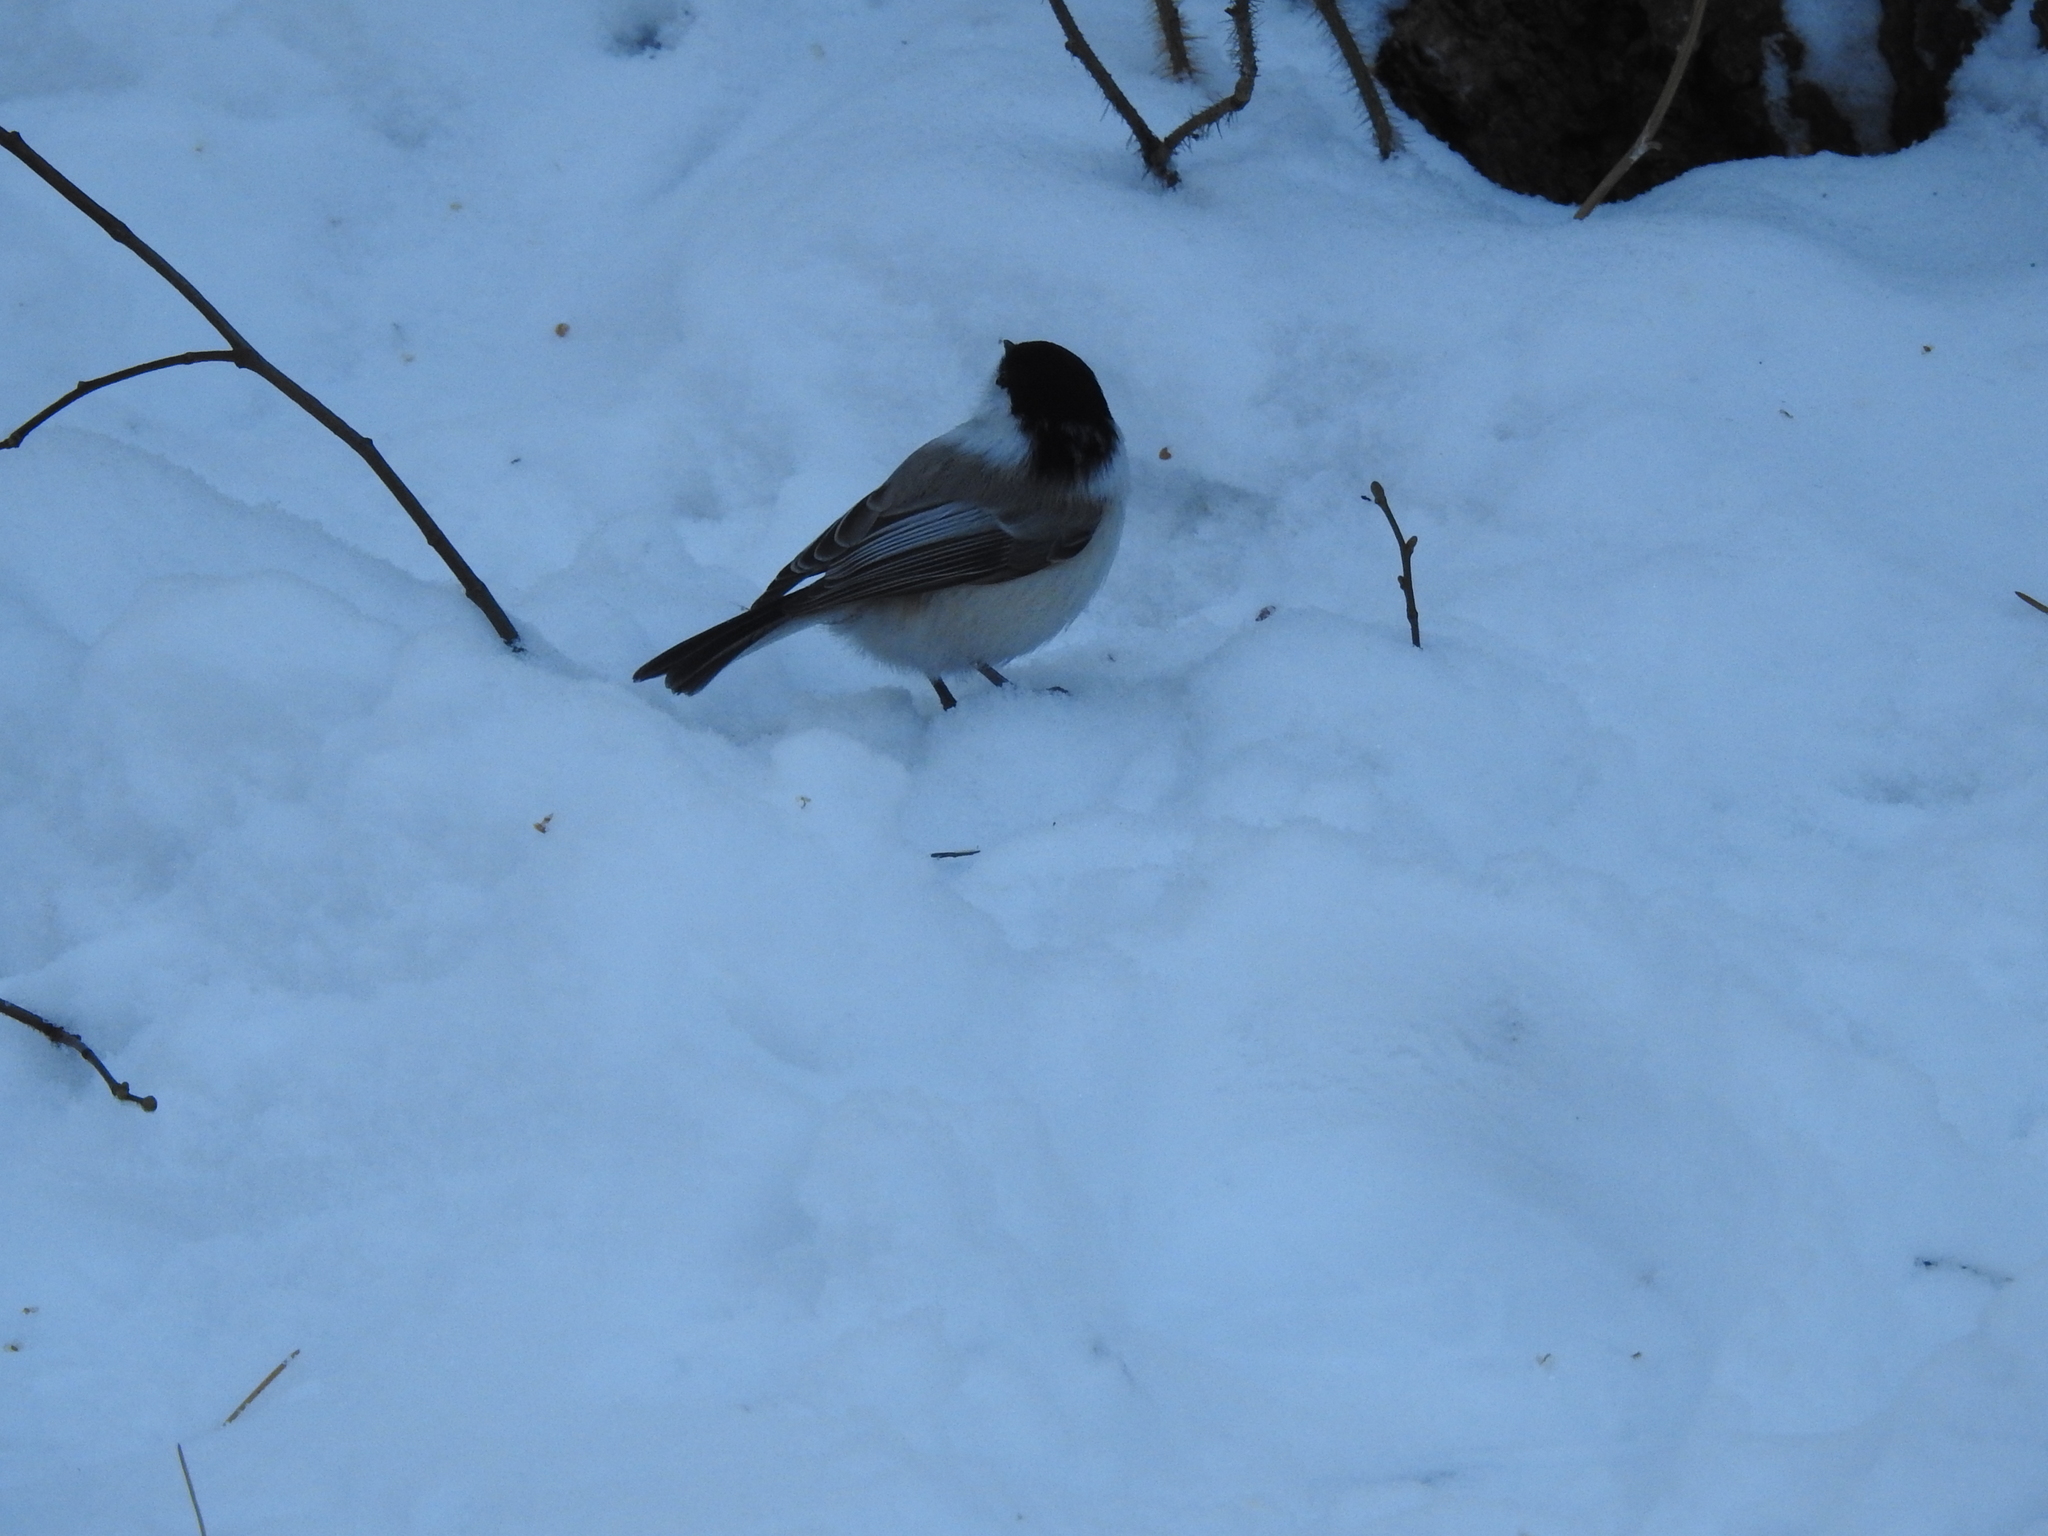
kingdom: Animalia
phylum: Chordata
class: Aves
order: Passeriformes
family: Paridae
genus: Poecile
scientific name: Poecile montanus
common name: Willow tit
